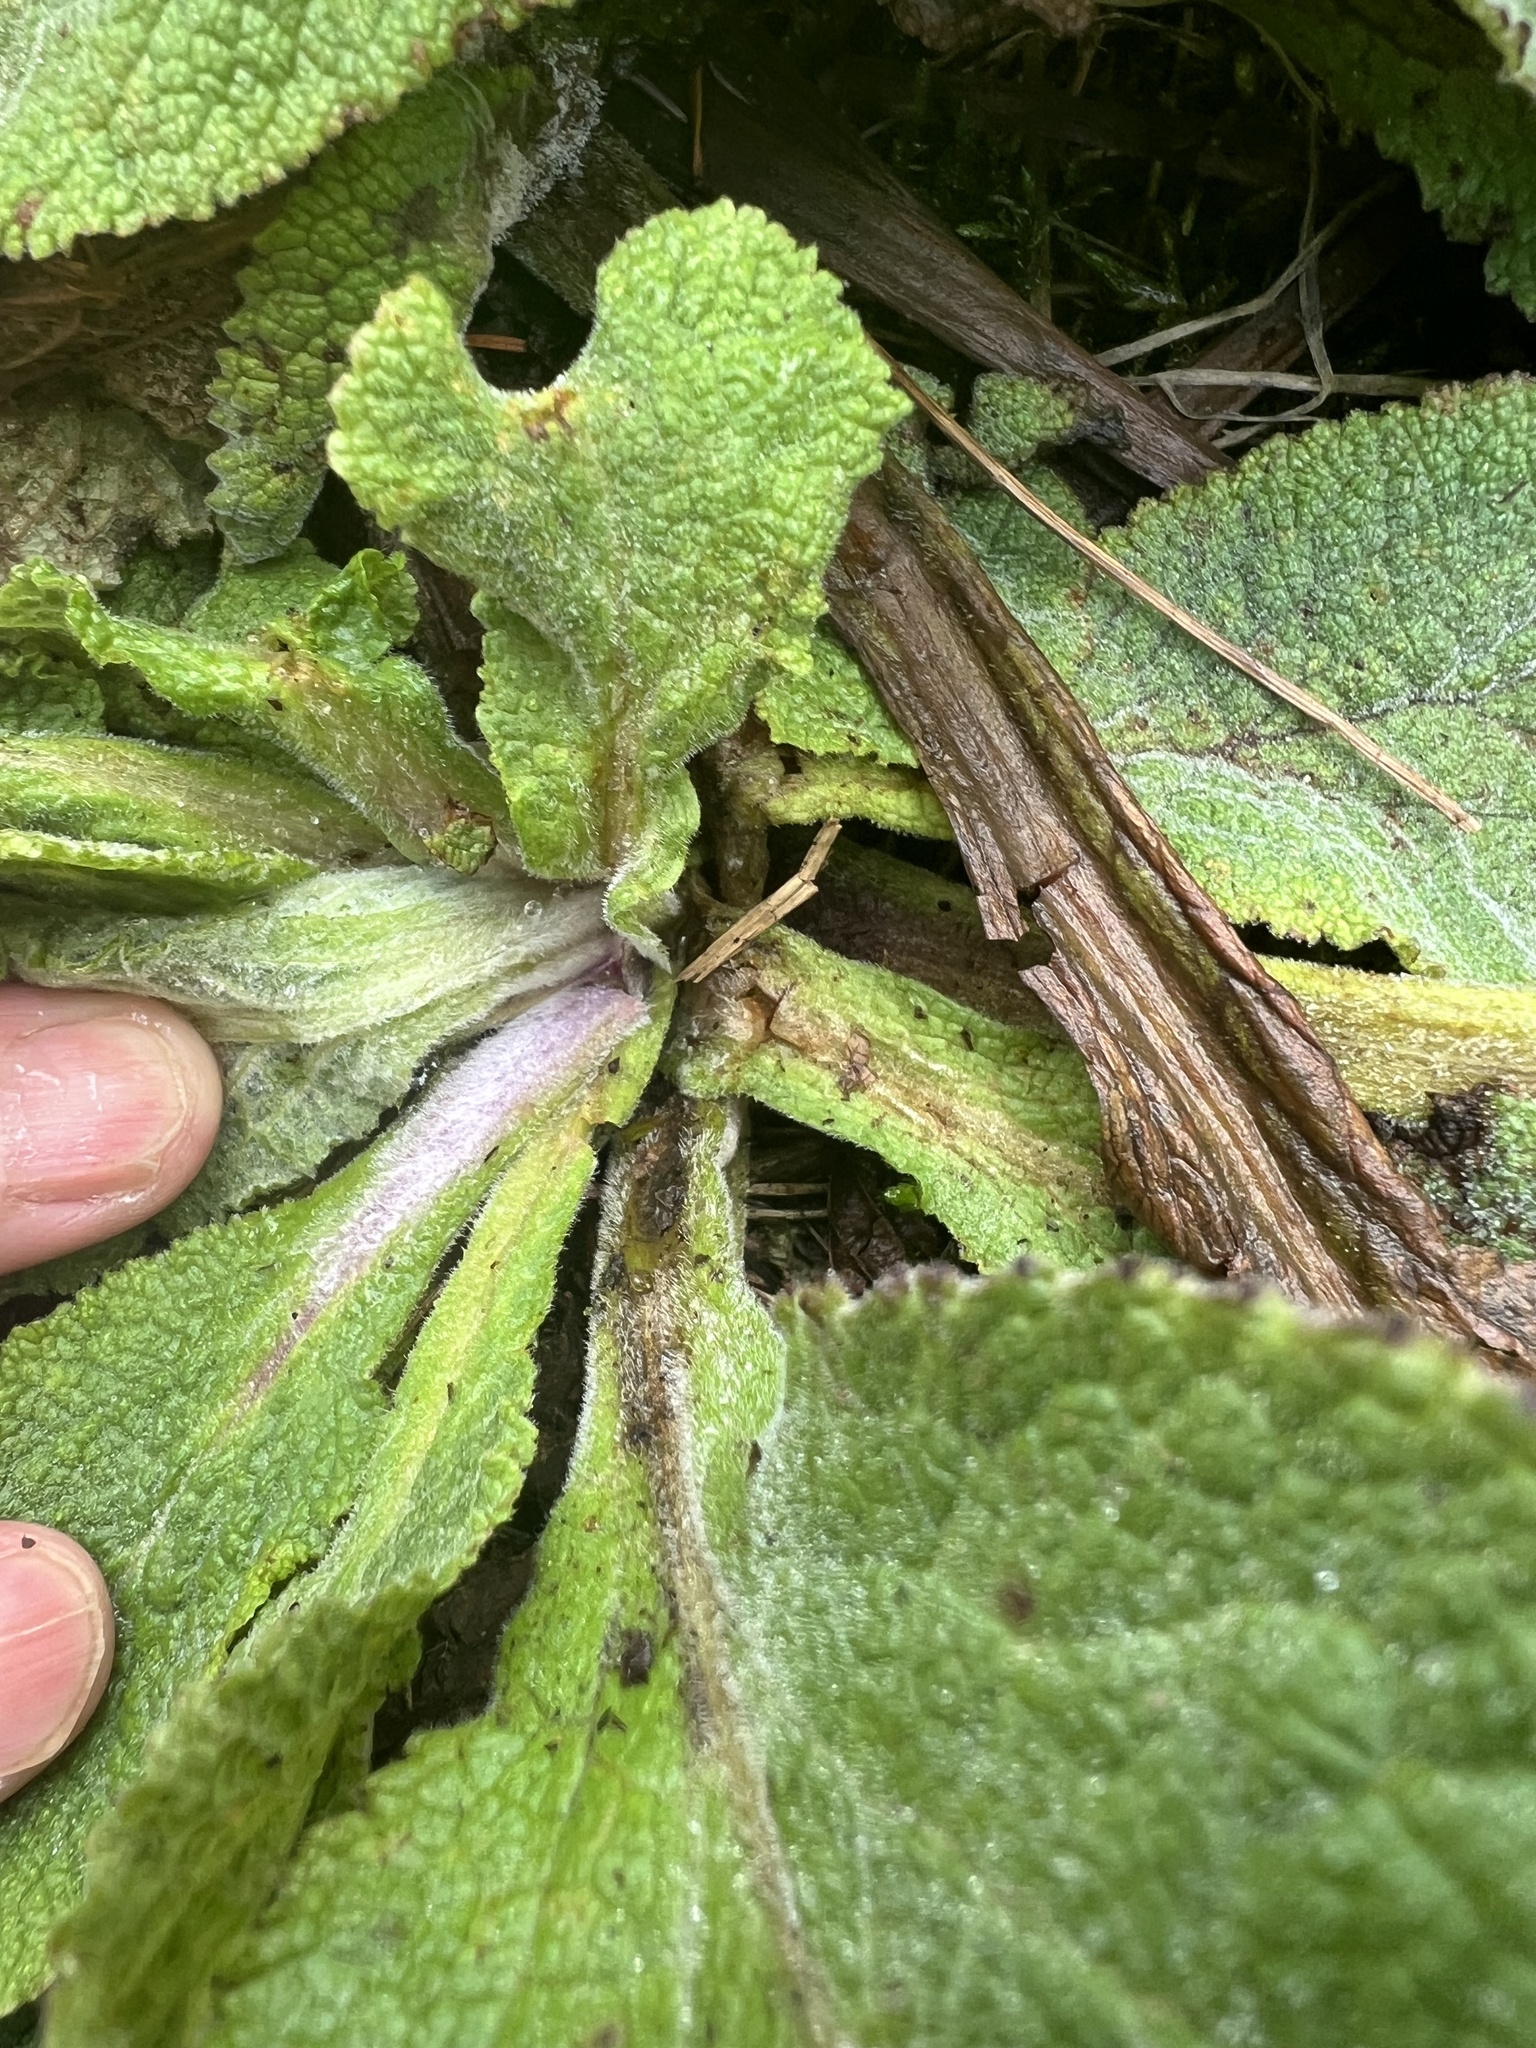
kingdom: Plantae
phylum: Tracheophyta
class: Magnoliopsida
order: Lamiales
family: Plantaginaceae
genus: Digitalis
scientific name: Digitalis purpurea
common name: Foxglove
